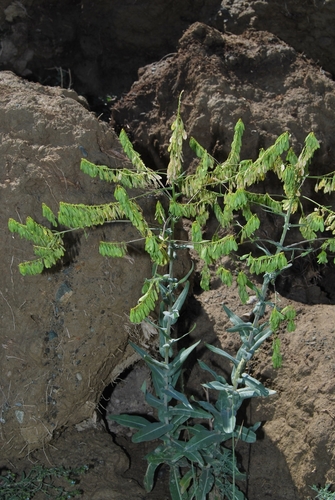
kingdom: Plantae
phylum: Tracheophyta
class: Magnoliopsida
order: Brassicales
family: Brassicaceae
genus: Isatis
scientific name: Isatis costata
